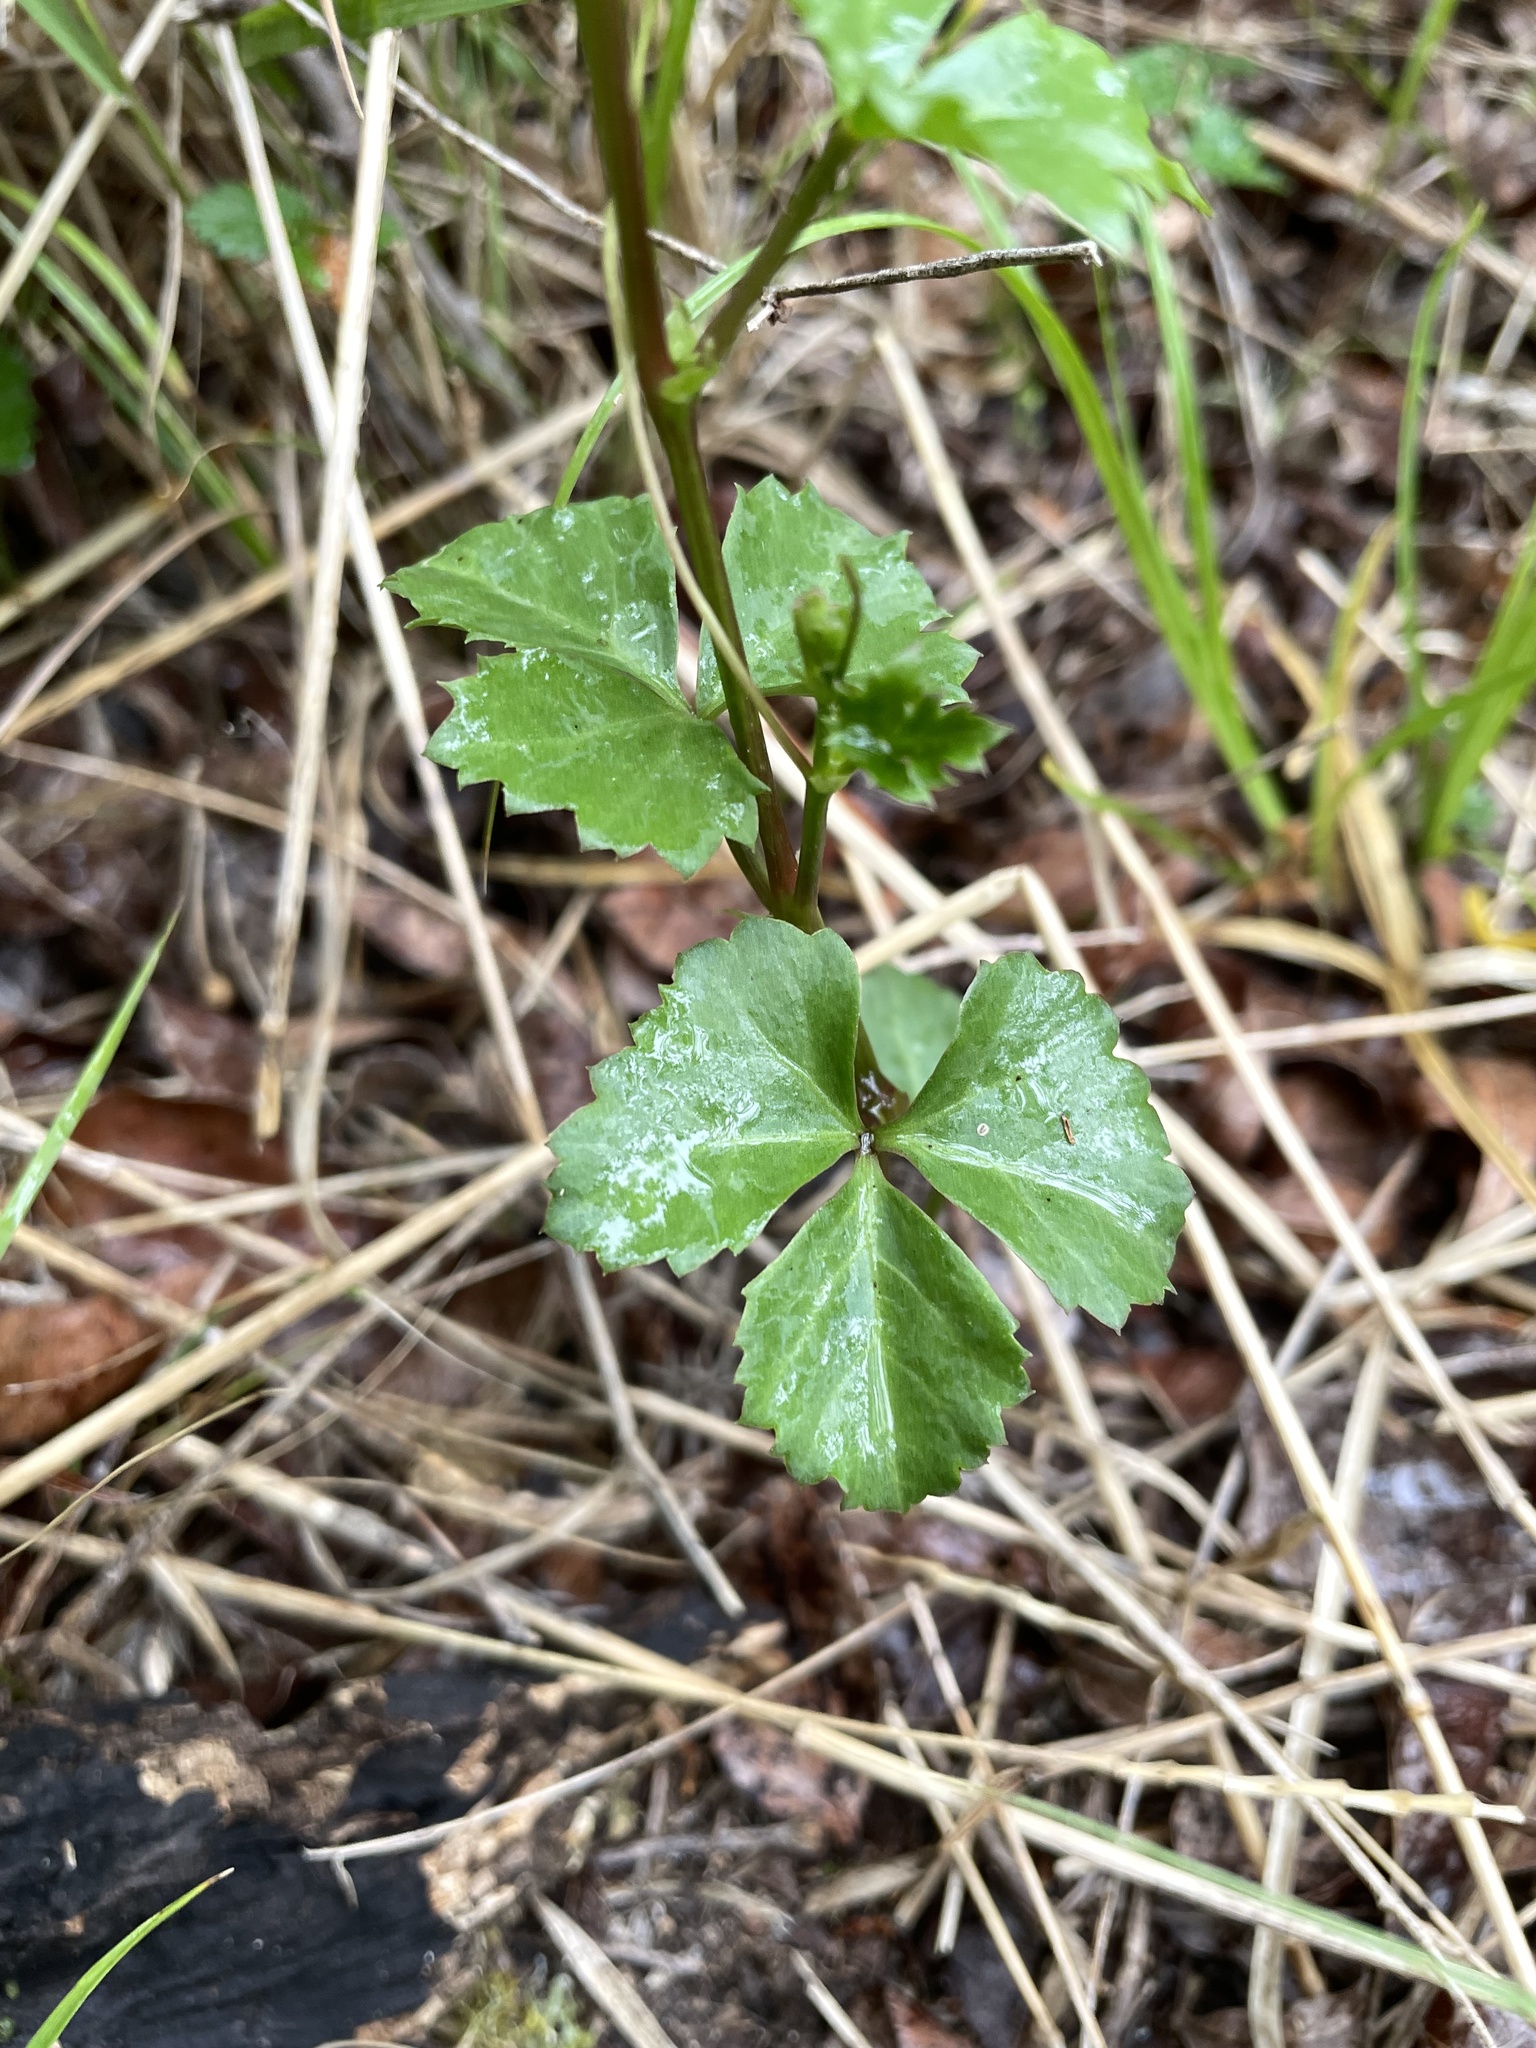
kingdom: Plantae
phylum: Tracheophyta
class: Magnoliopsida
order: Vitales
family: Vitaceae
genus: Cissus
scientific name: Cissus trifoliata
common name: Vine-sorrel
